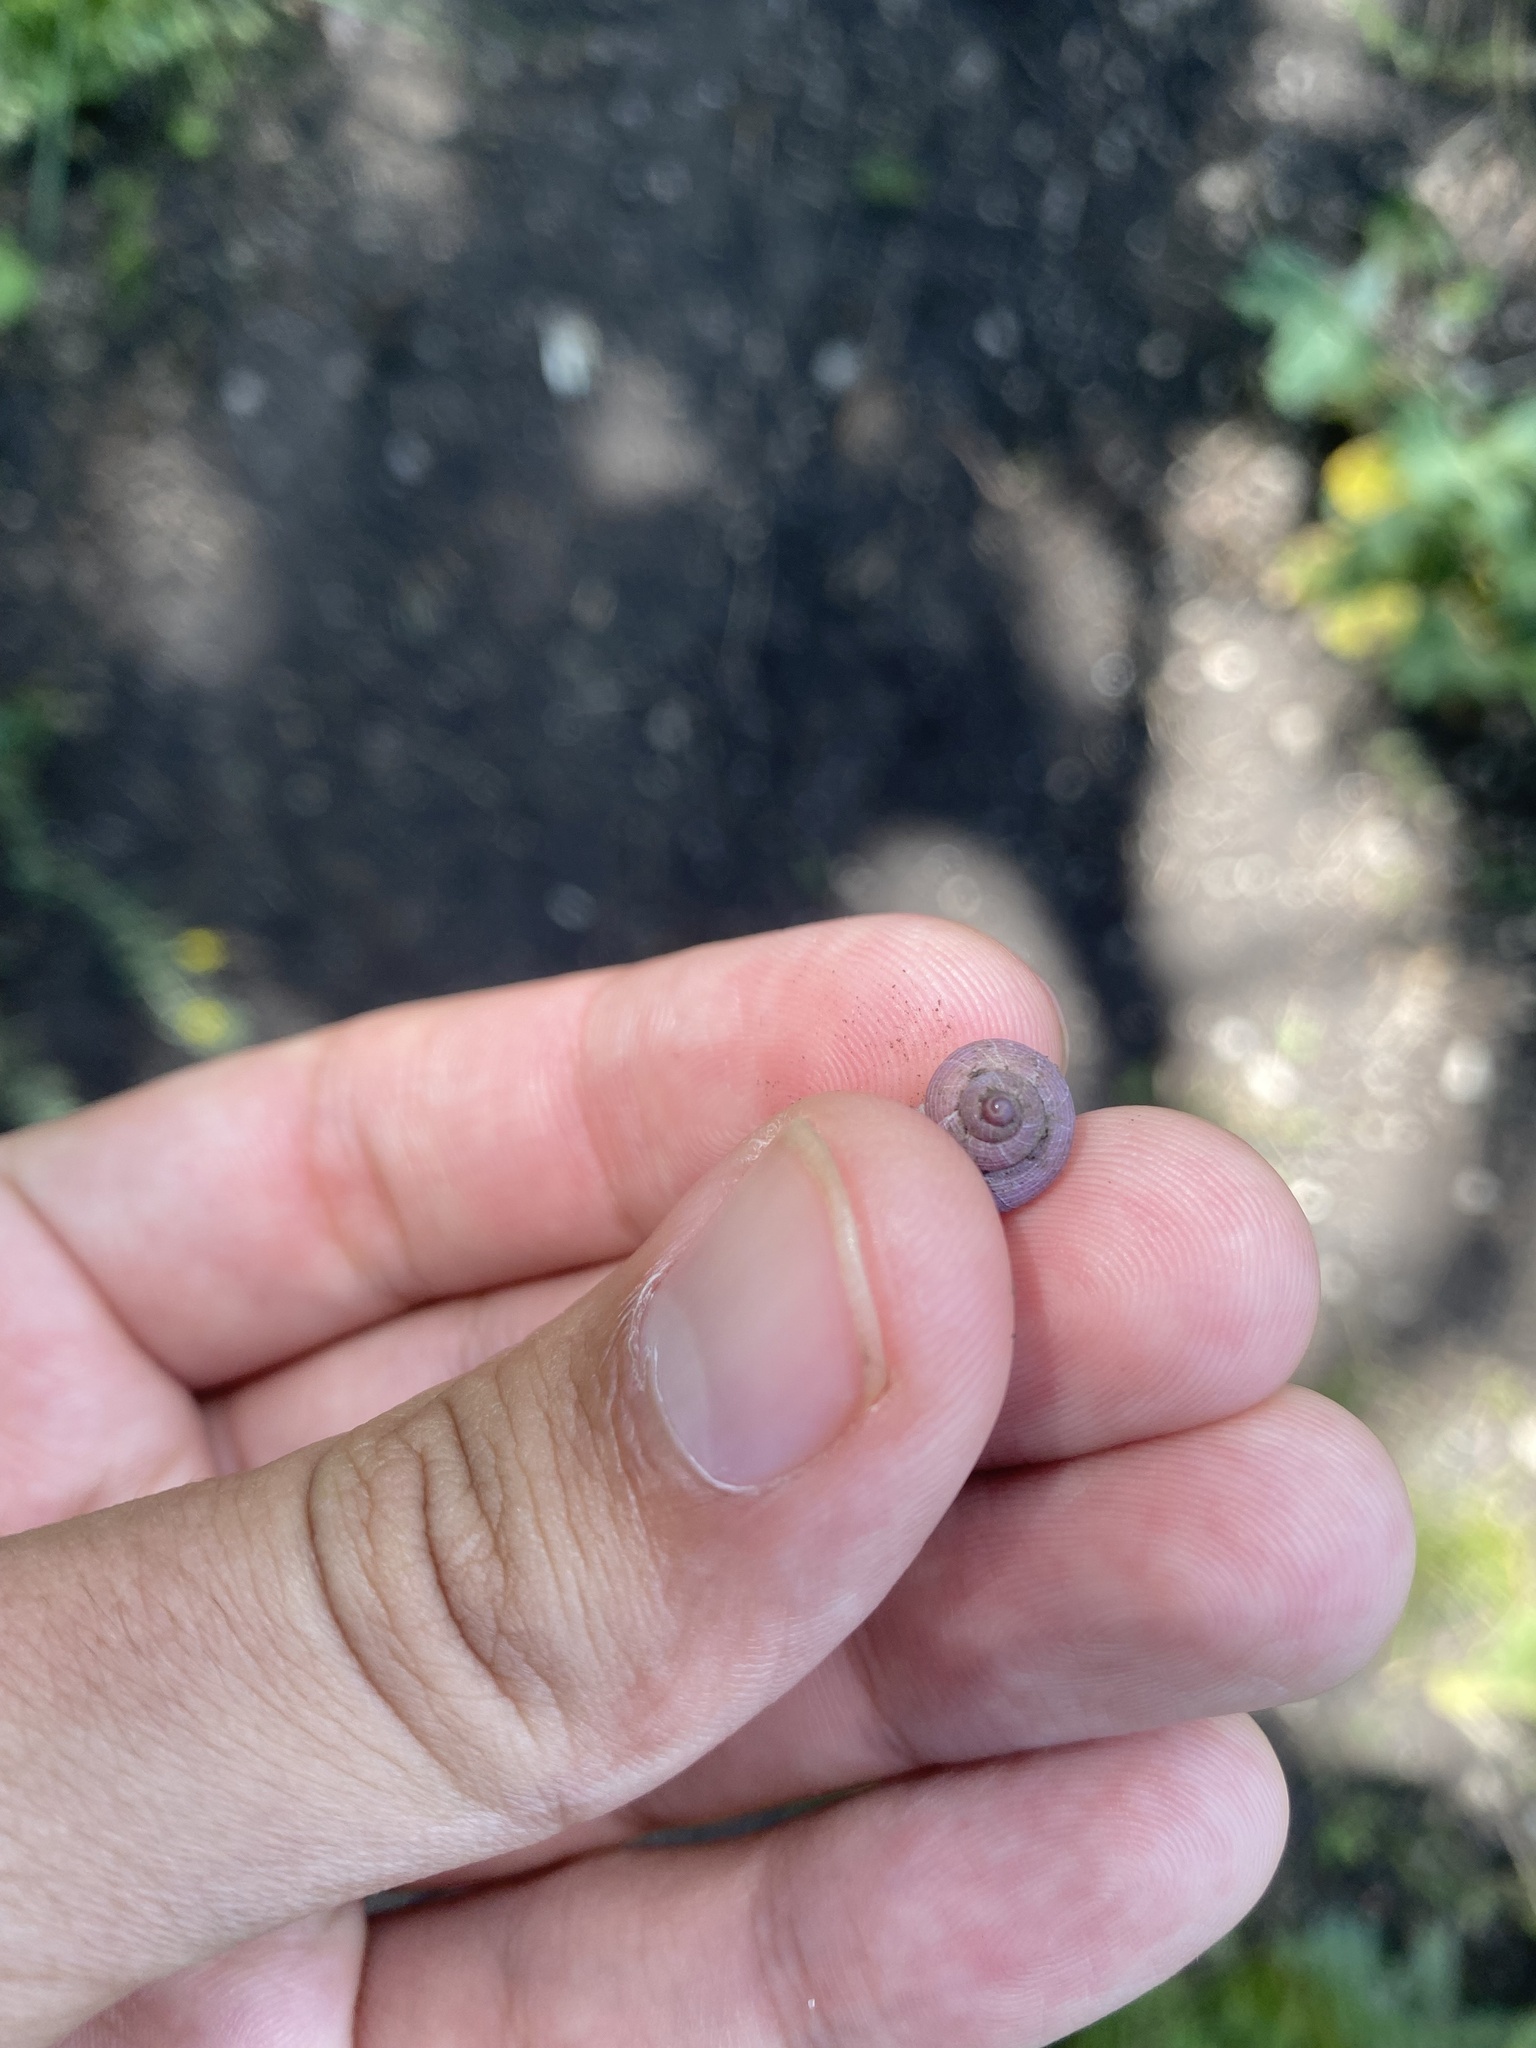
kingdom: Animalia
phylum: Mollusca
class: Gastropoda
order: Littorinimorpha
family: Pomatiidae
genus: Pomatias
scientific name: Pomatias rivularis
